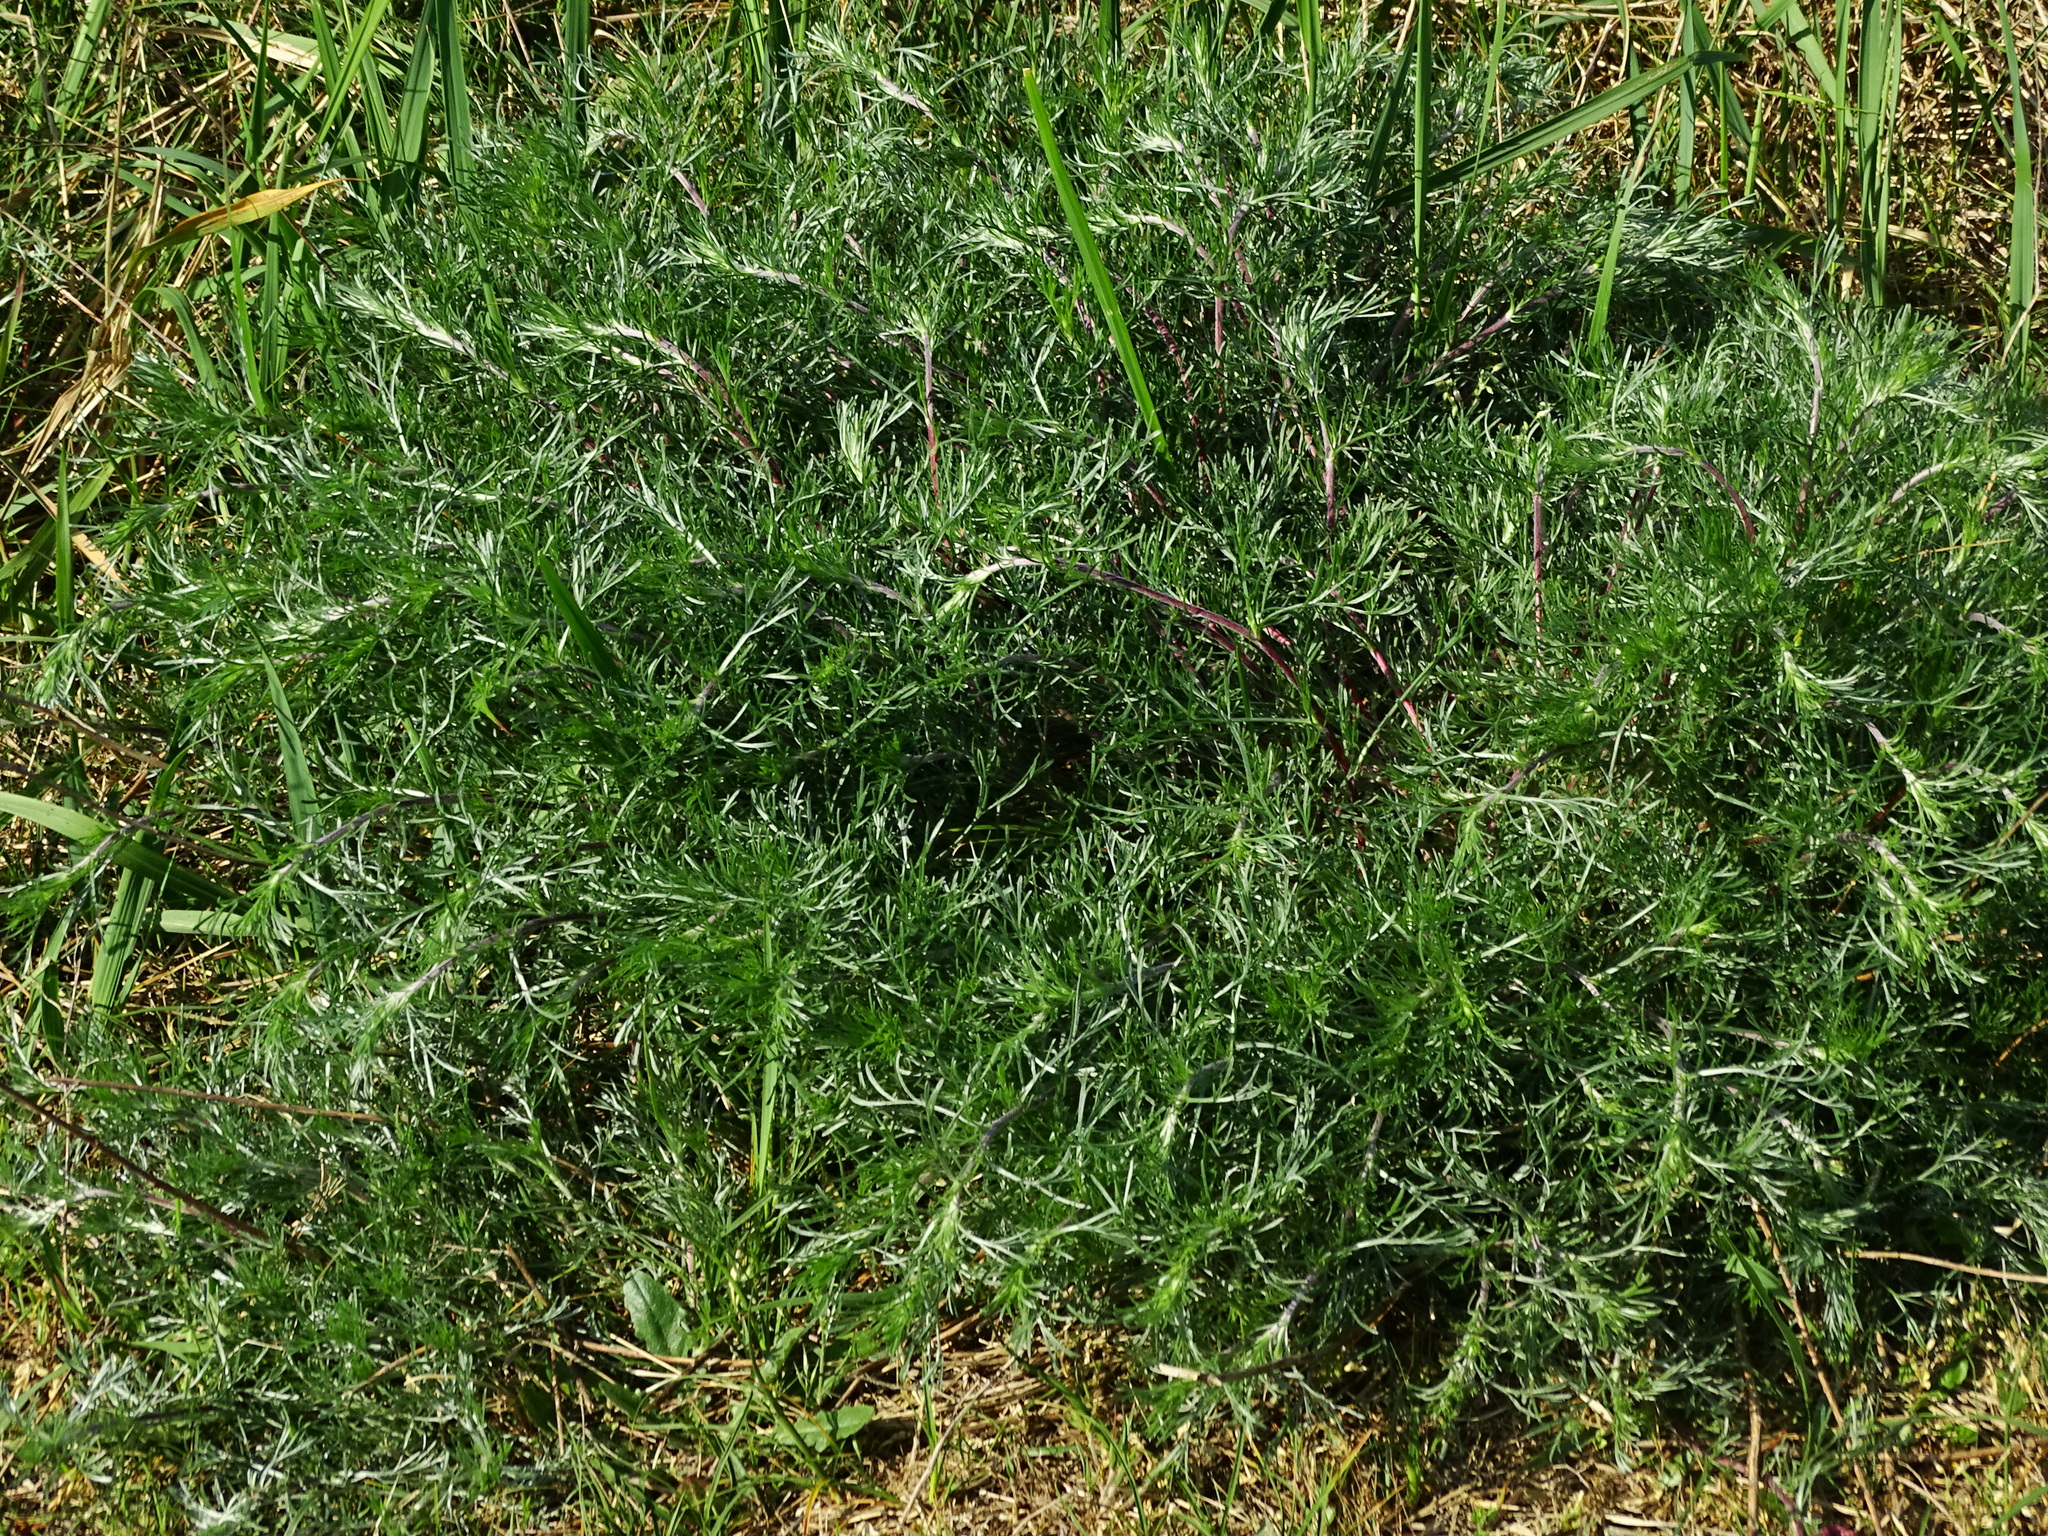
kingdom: Plantae
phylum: Tracheophyta
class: Magnoliopsida
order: Asterales
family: Asteraceae
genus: Artemisia
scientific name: Artemisia campestris
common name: Field wormwood
